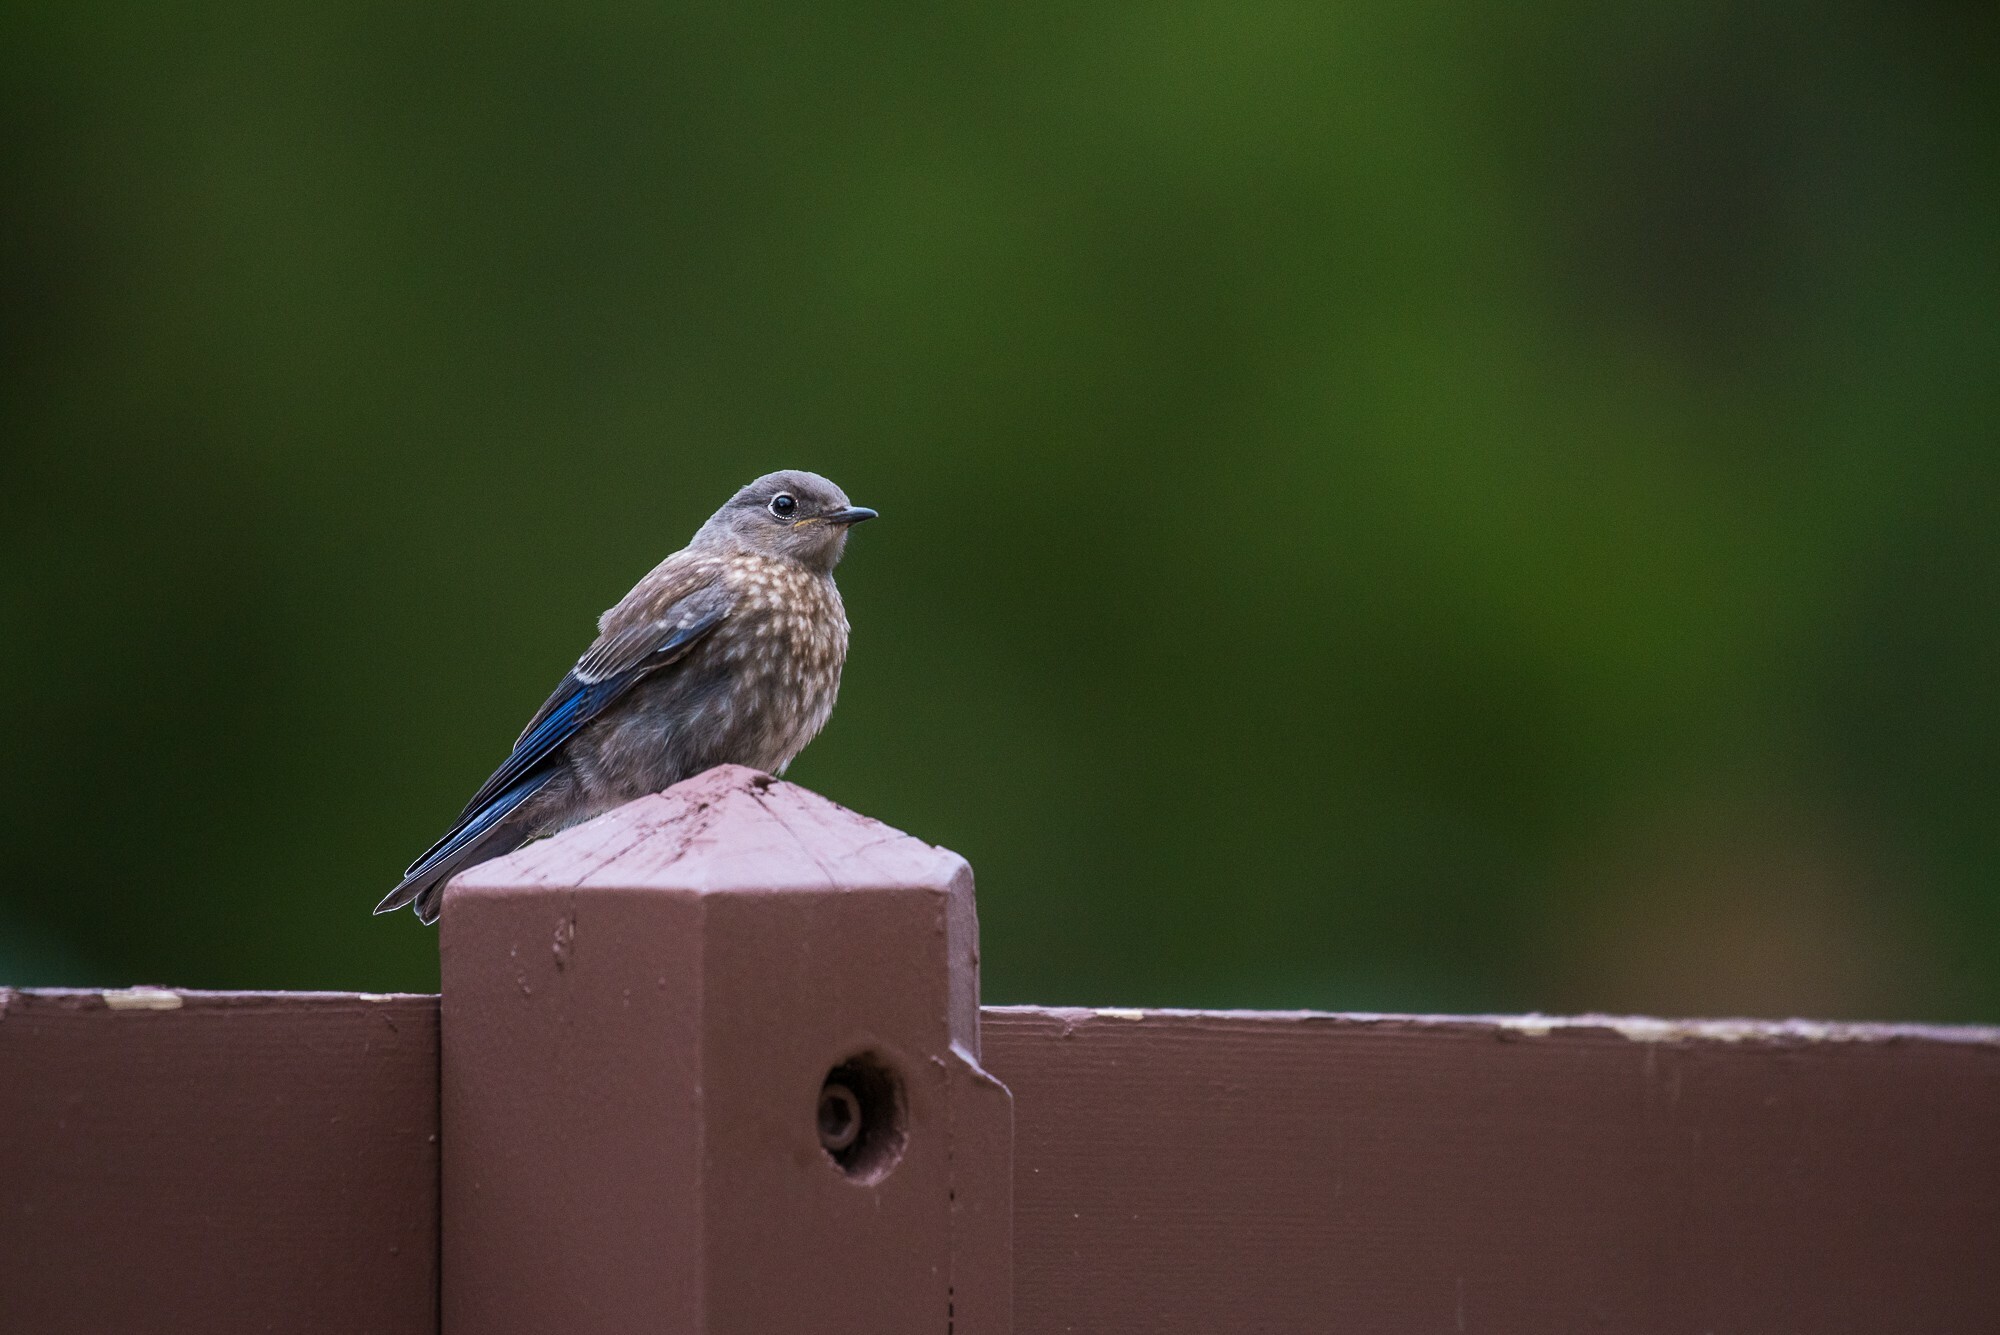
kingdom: Animalia
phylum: Chordata
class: Aves
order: Passeriformes
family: Turdidae
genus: Sialia
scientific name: Sialia mexicana
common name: Western bluebird
